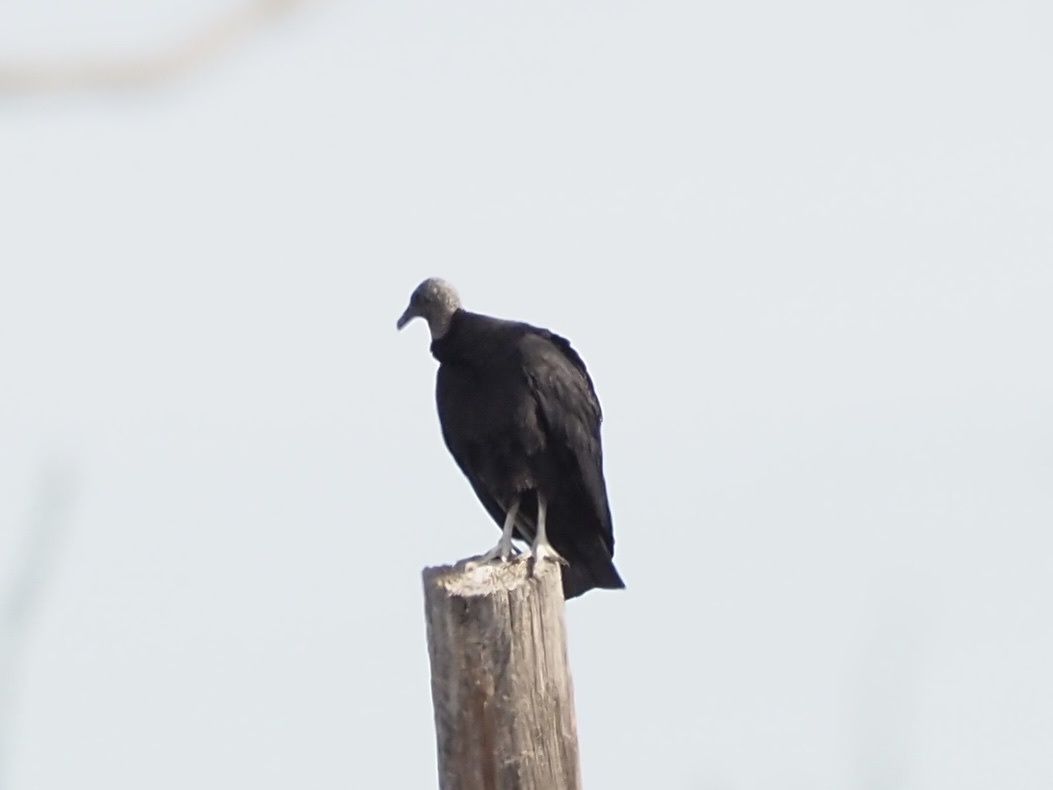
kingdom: Animalia
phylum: Chordata
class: Aves
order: Accipitriformes
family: Cathartidae
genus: Coragyps
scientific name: Coragyps atratus
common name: Black vulture
